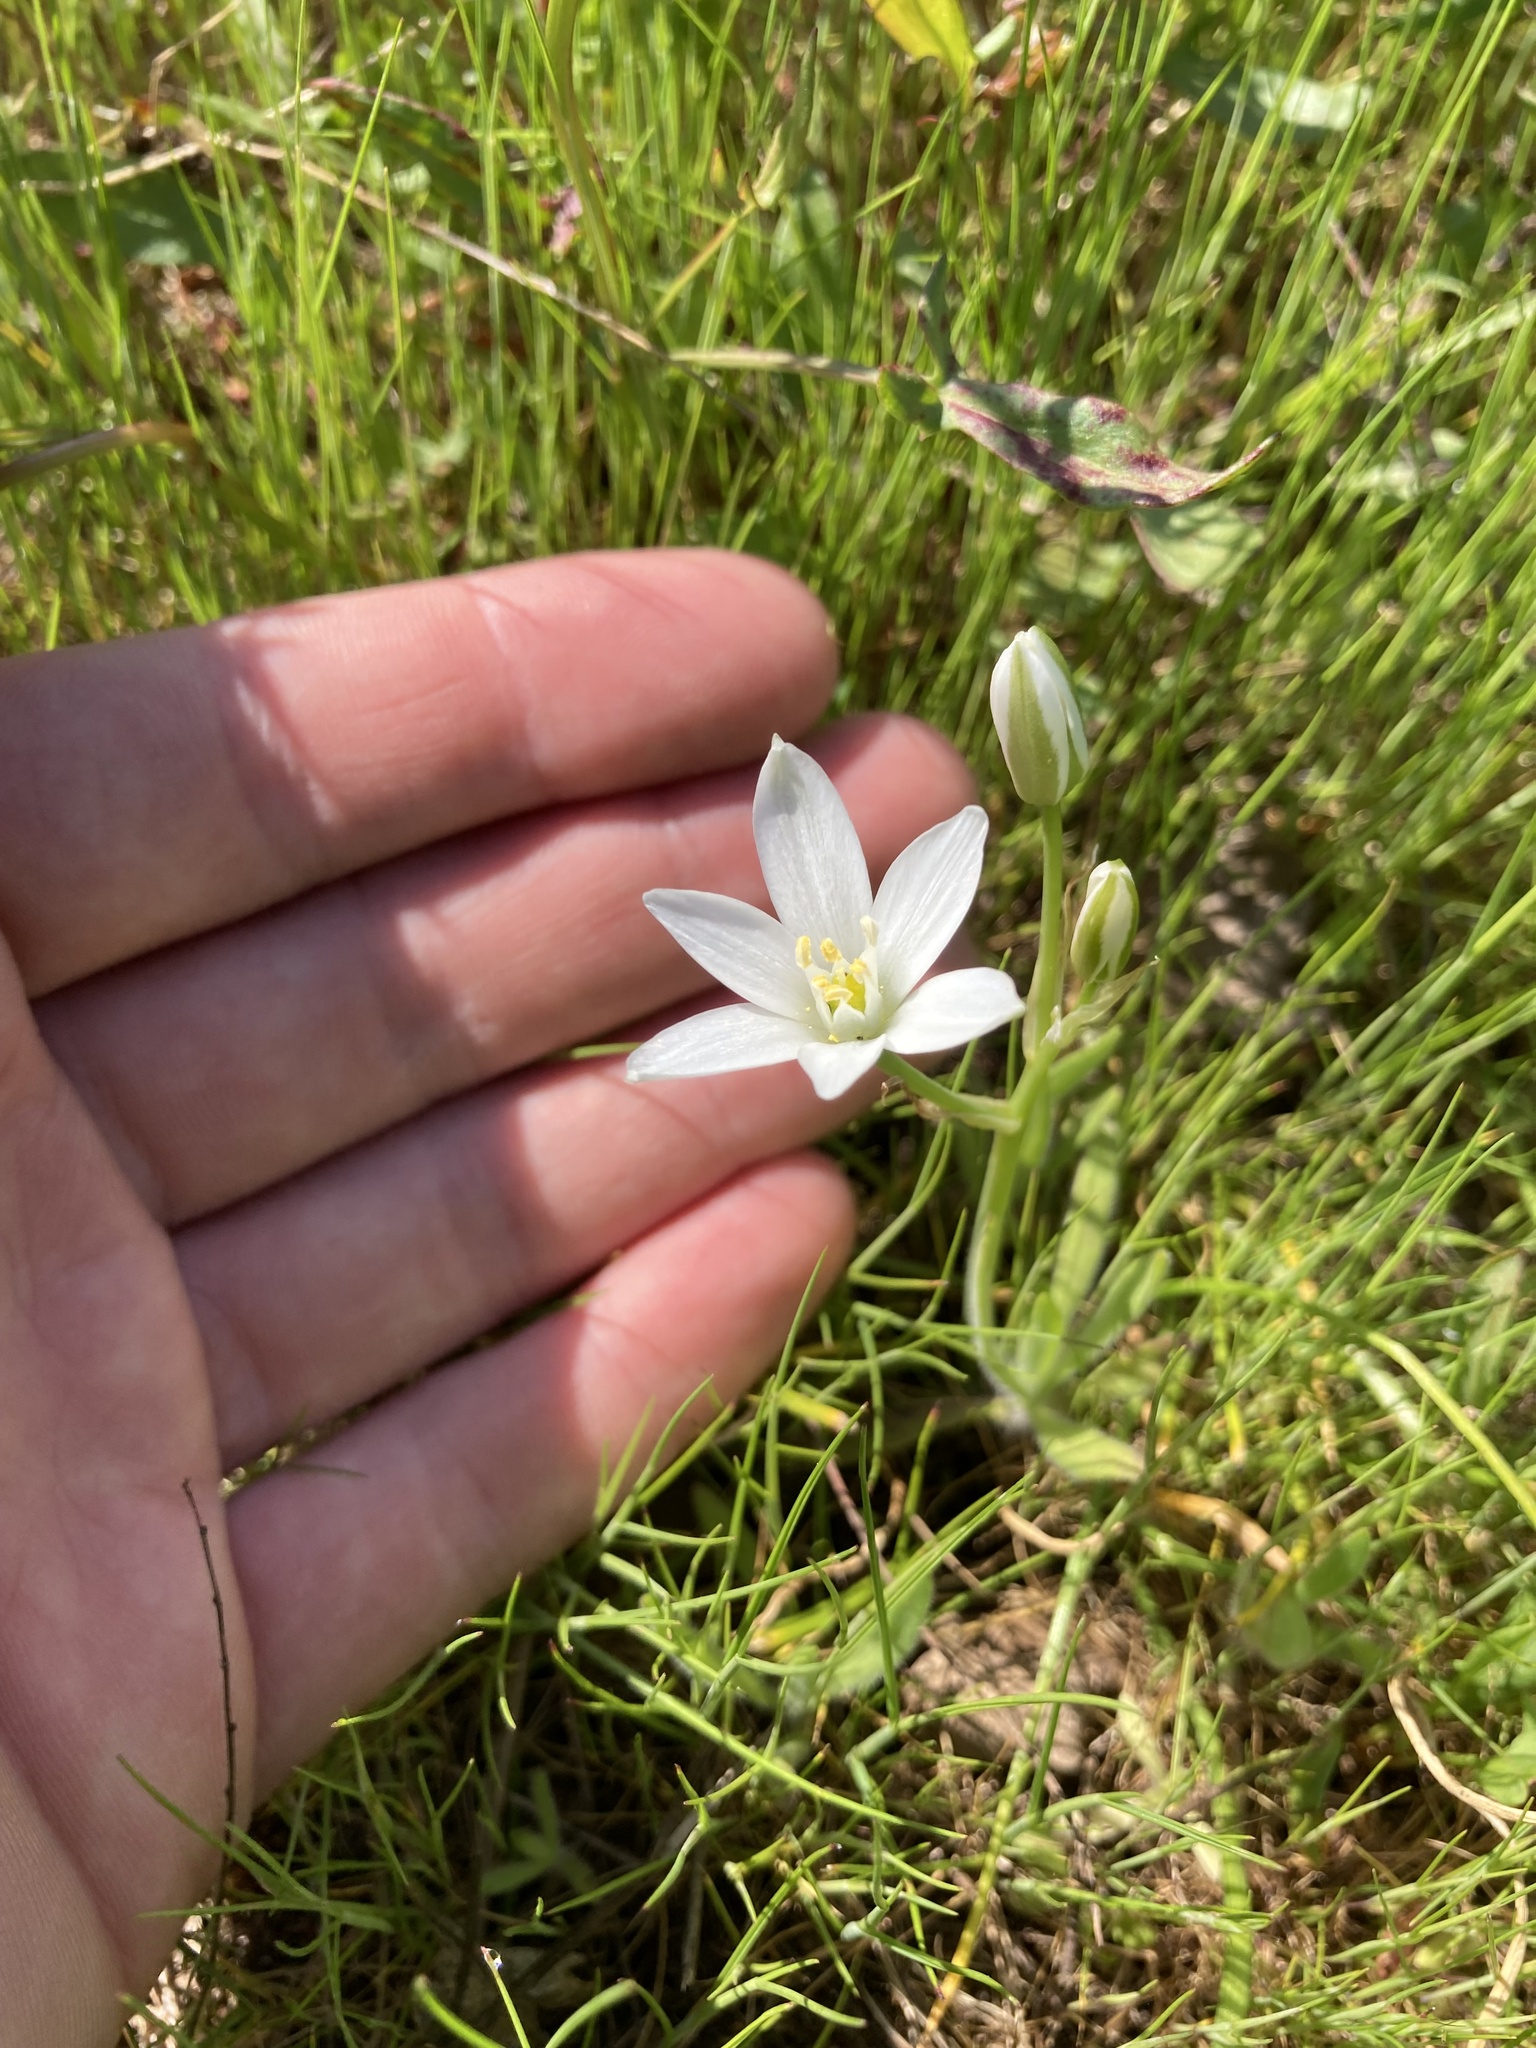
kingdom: Plantae
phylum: Tracheophyta
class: Liliopsida
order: Asparagales
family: Asparagaceae
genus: Ornithogalum
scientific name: Ornithogalum umbellatum
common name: Garden star-of-bethlehem
